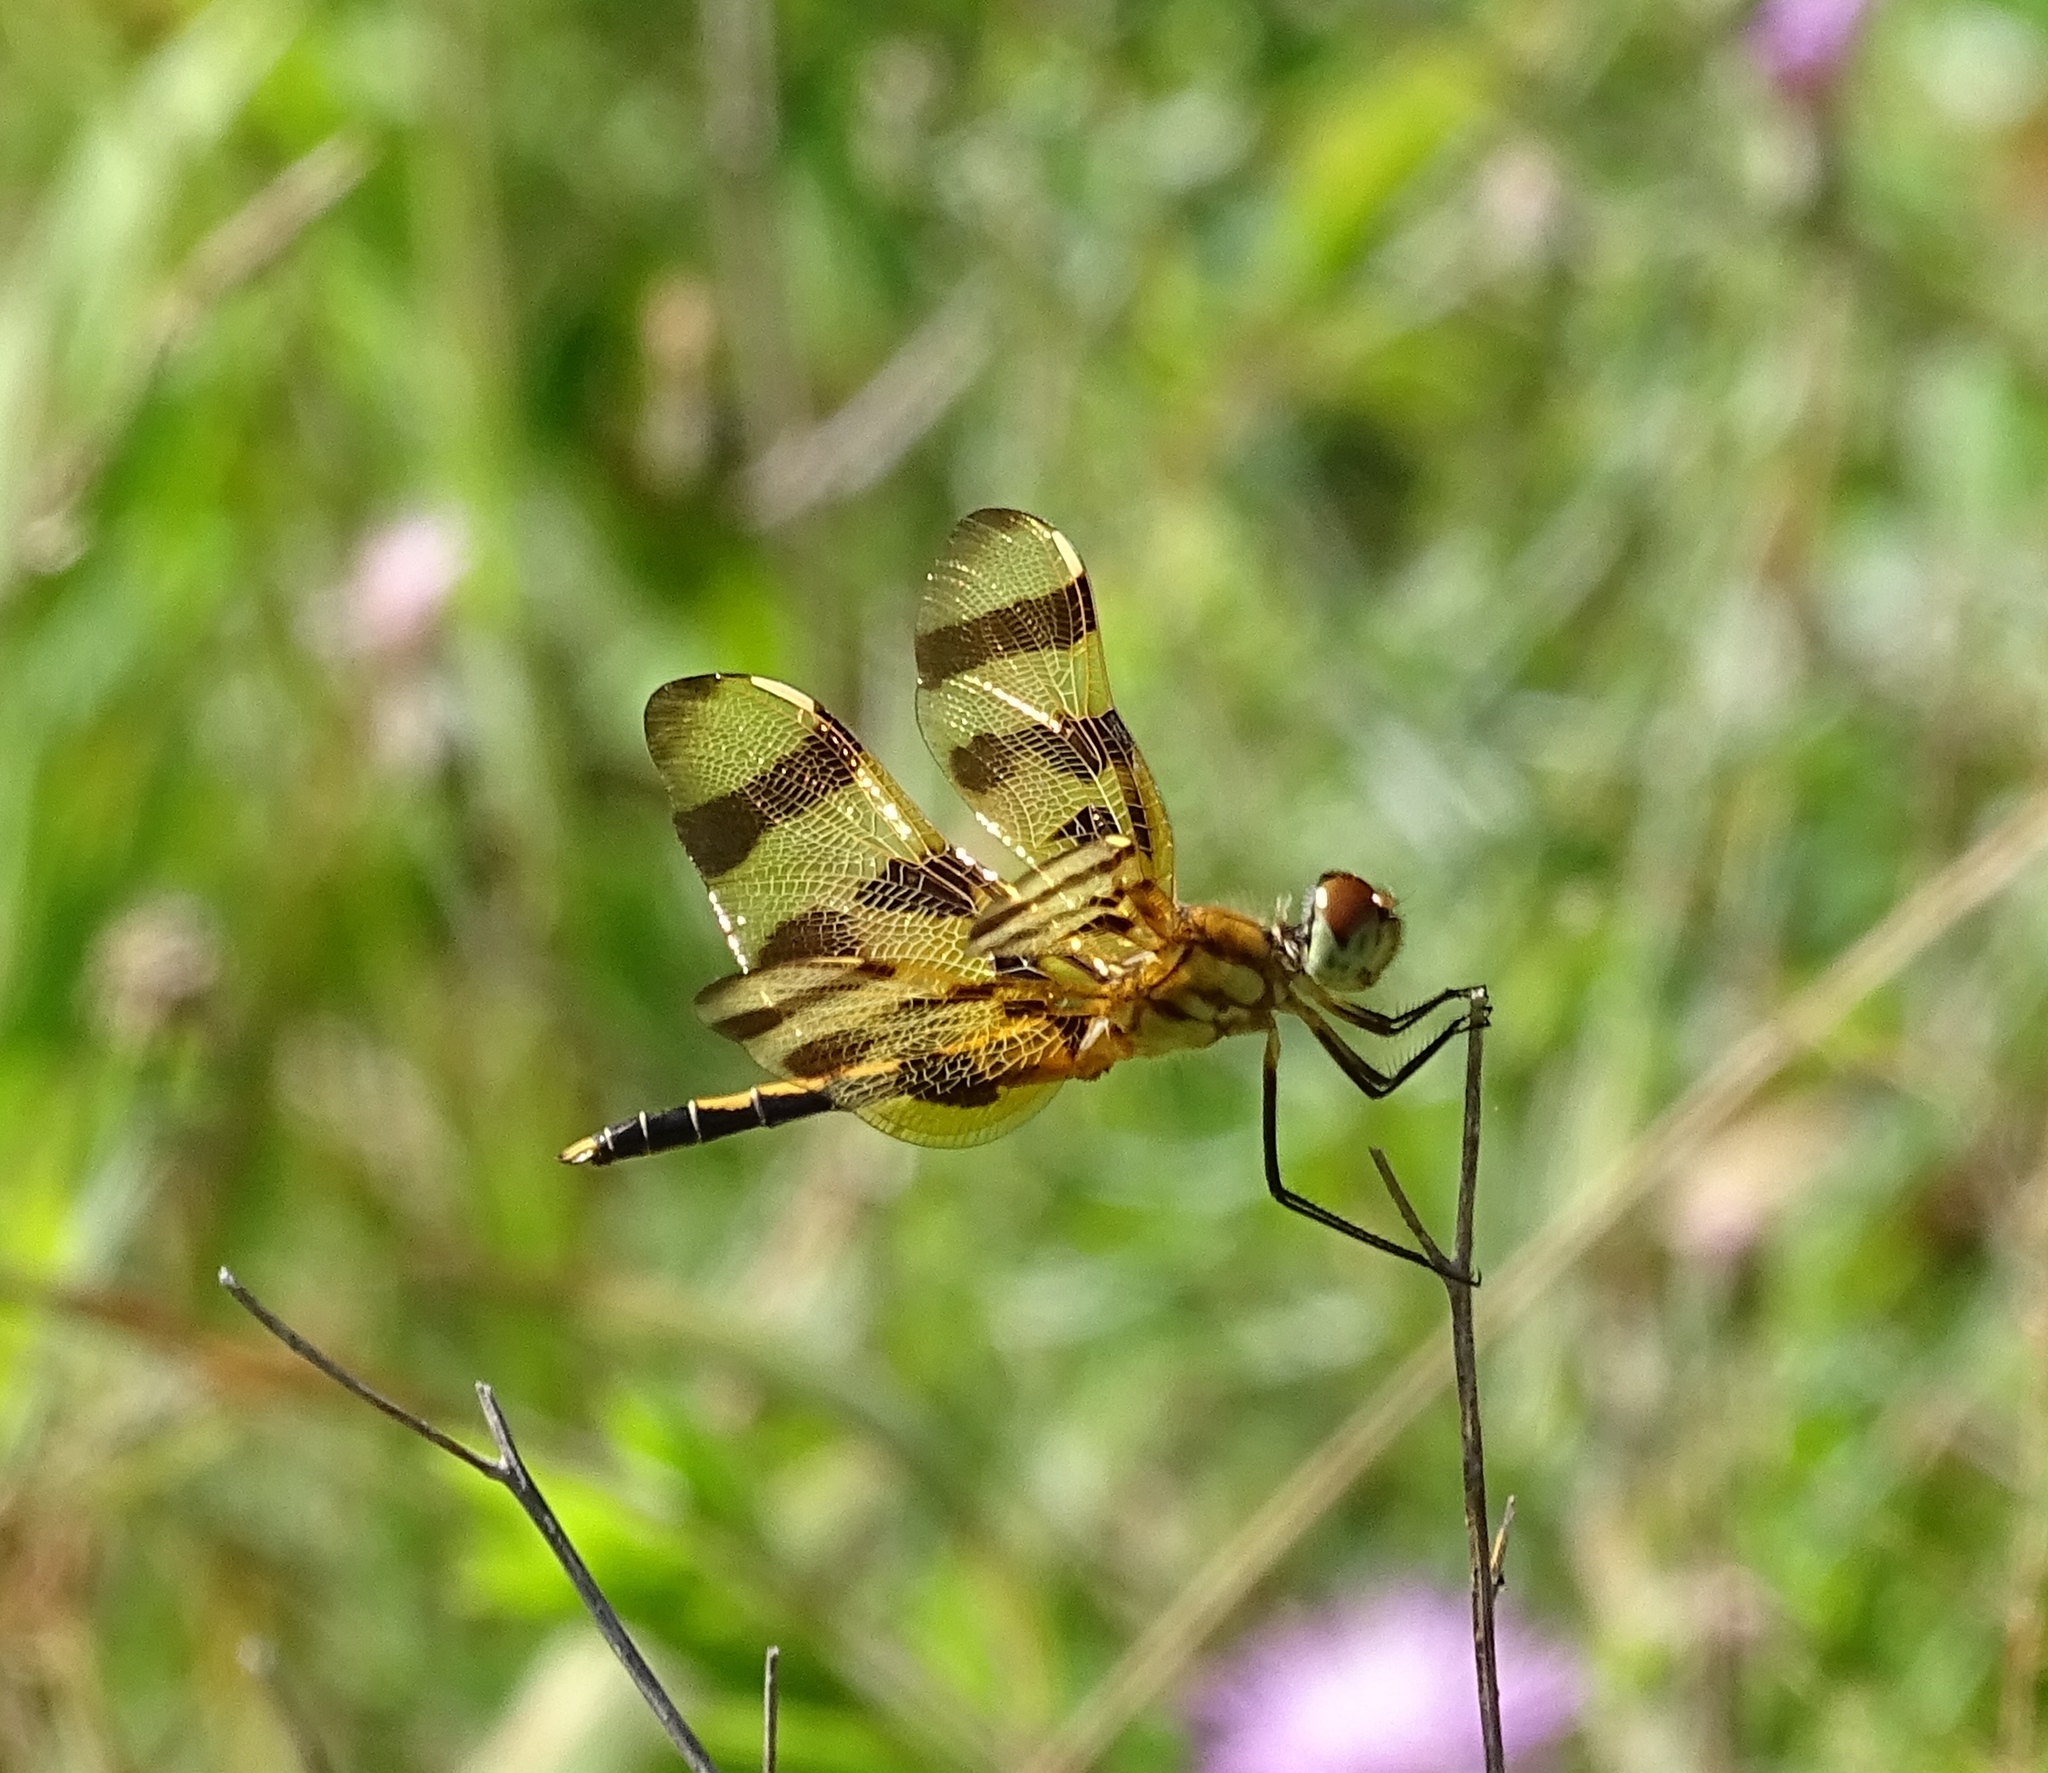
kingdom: Animalia
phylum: Arthropoda
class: Insecta
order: Odonata
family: Libellulidae
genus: Celithemis
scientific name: Celithemis eponina
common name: Halloween pennant
